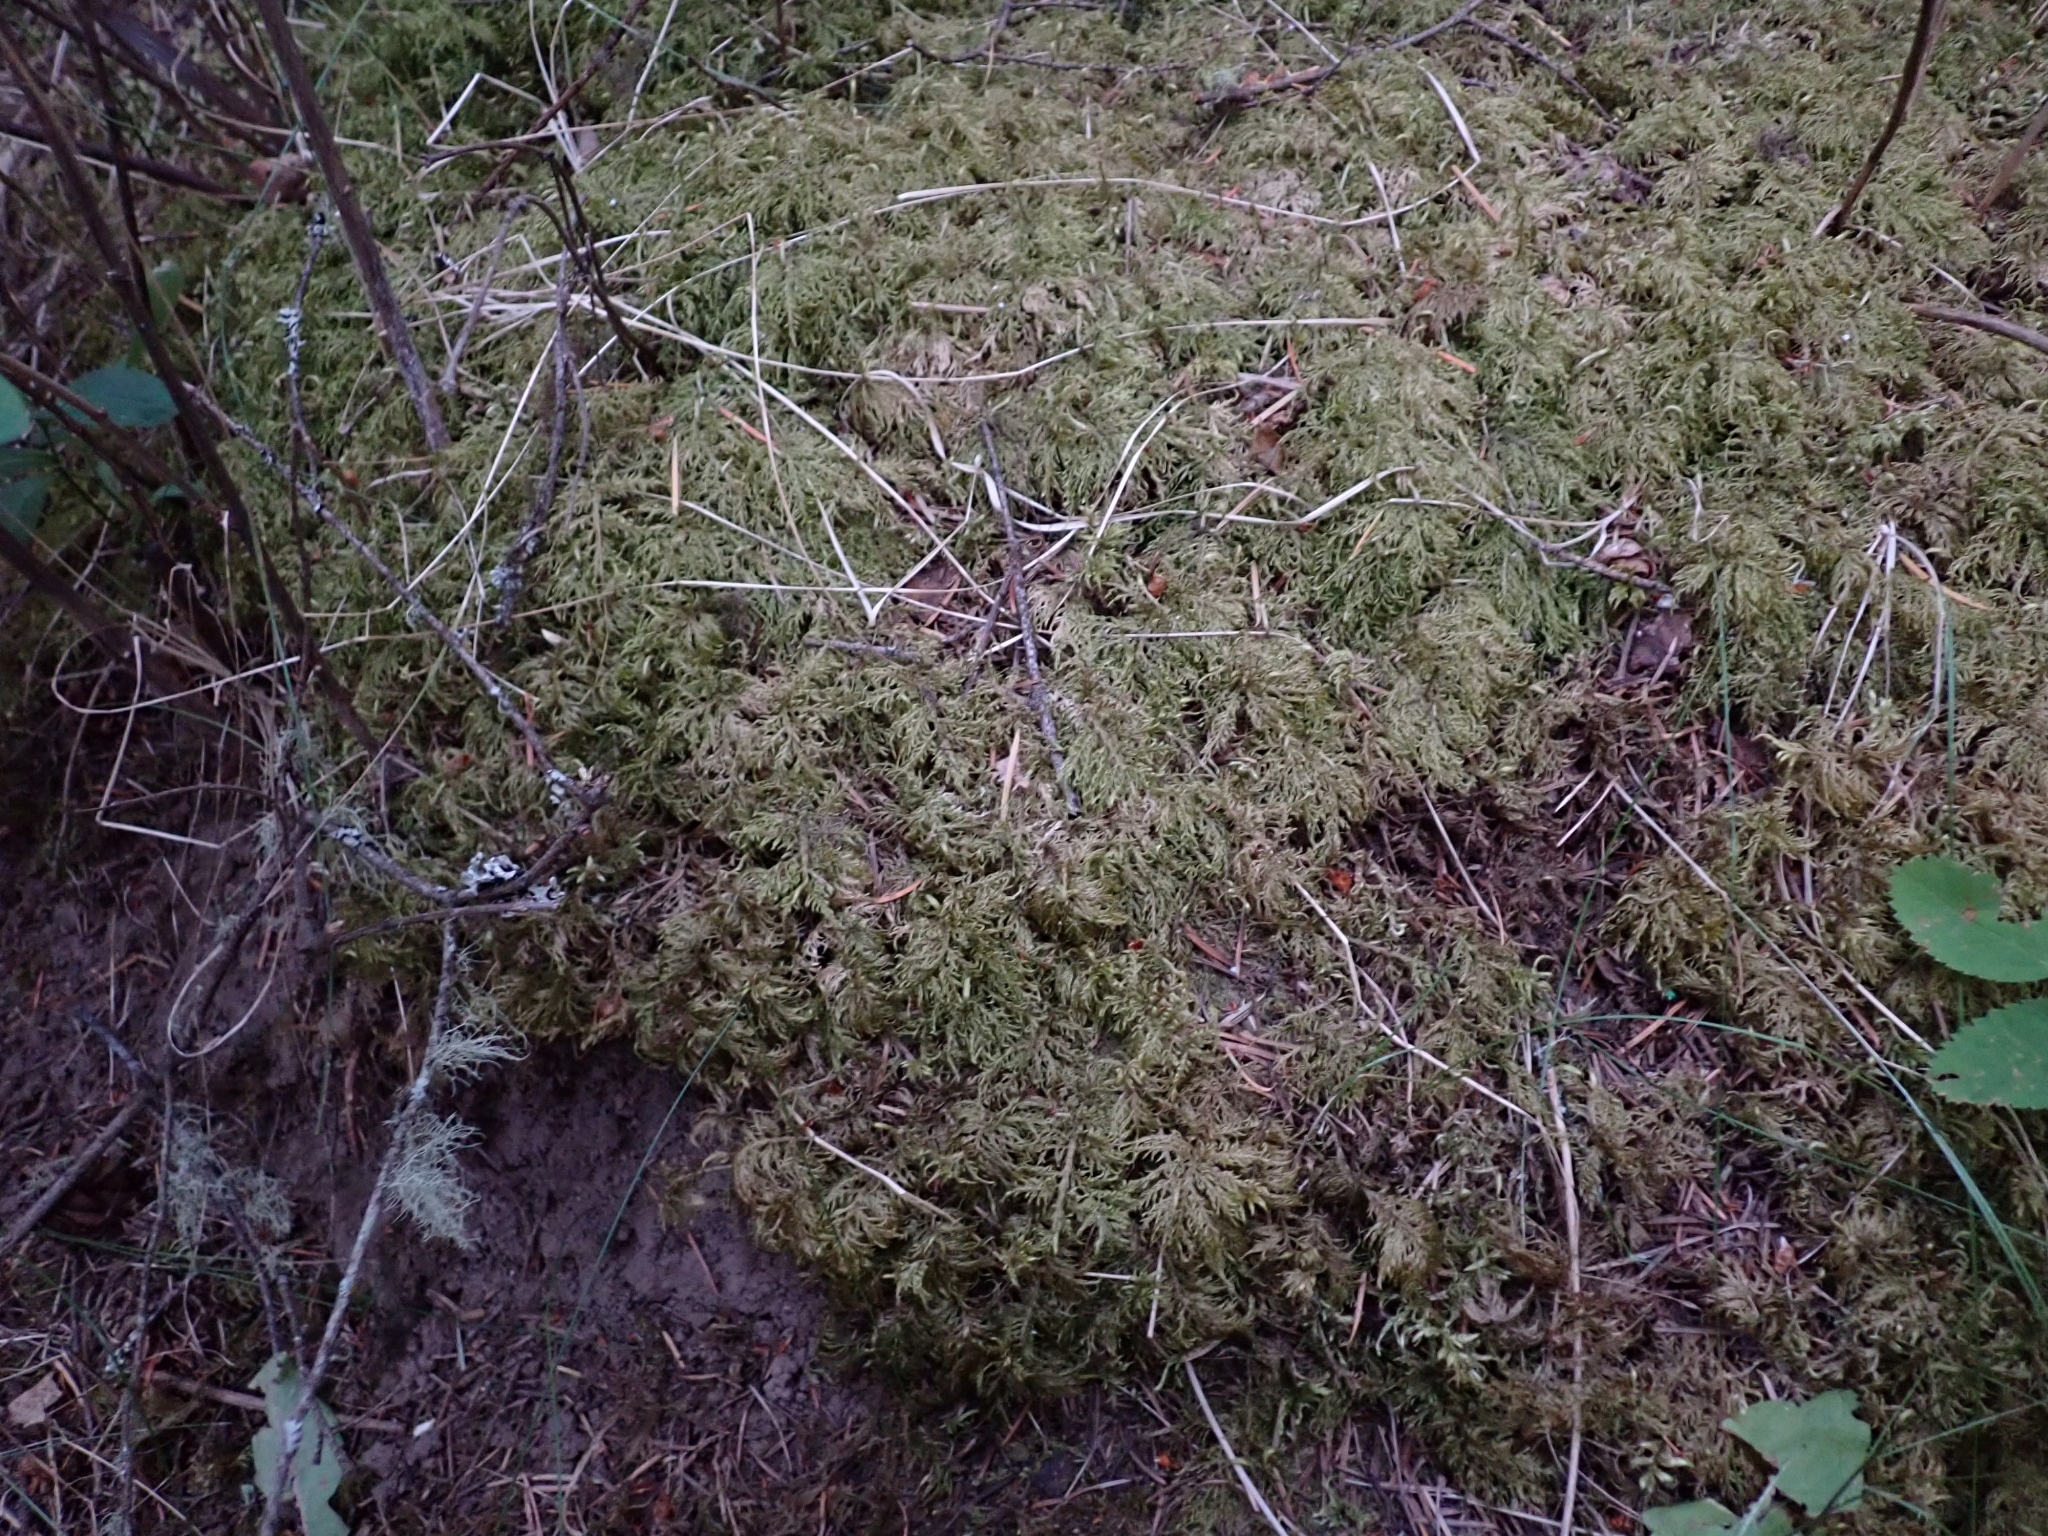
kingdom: Plantae
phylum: Bryophyta
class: Bryopsida
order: Hypnales
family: Hylocomiaceae
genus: Hylocomium
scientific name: Hylocomium splendens
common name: Stairstep moss
